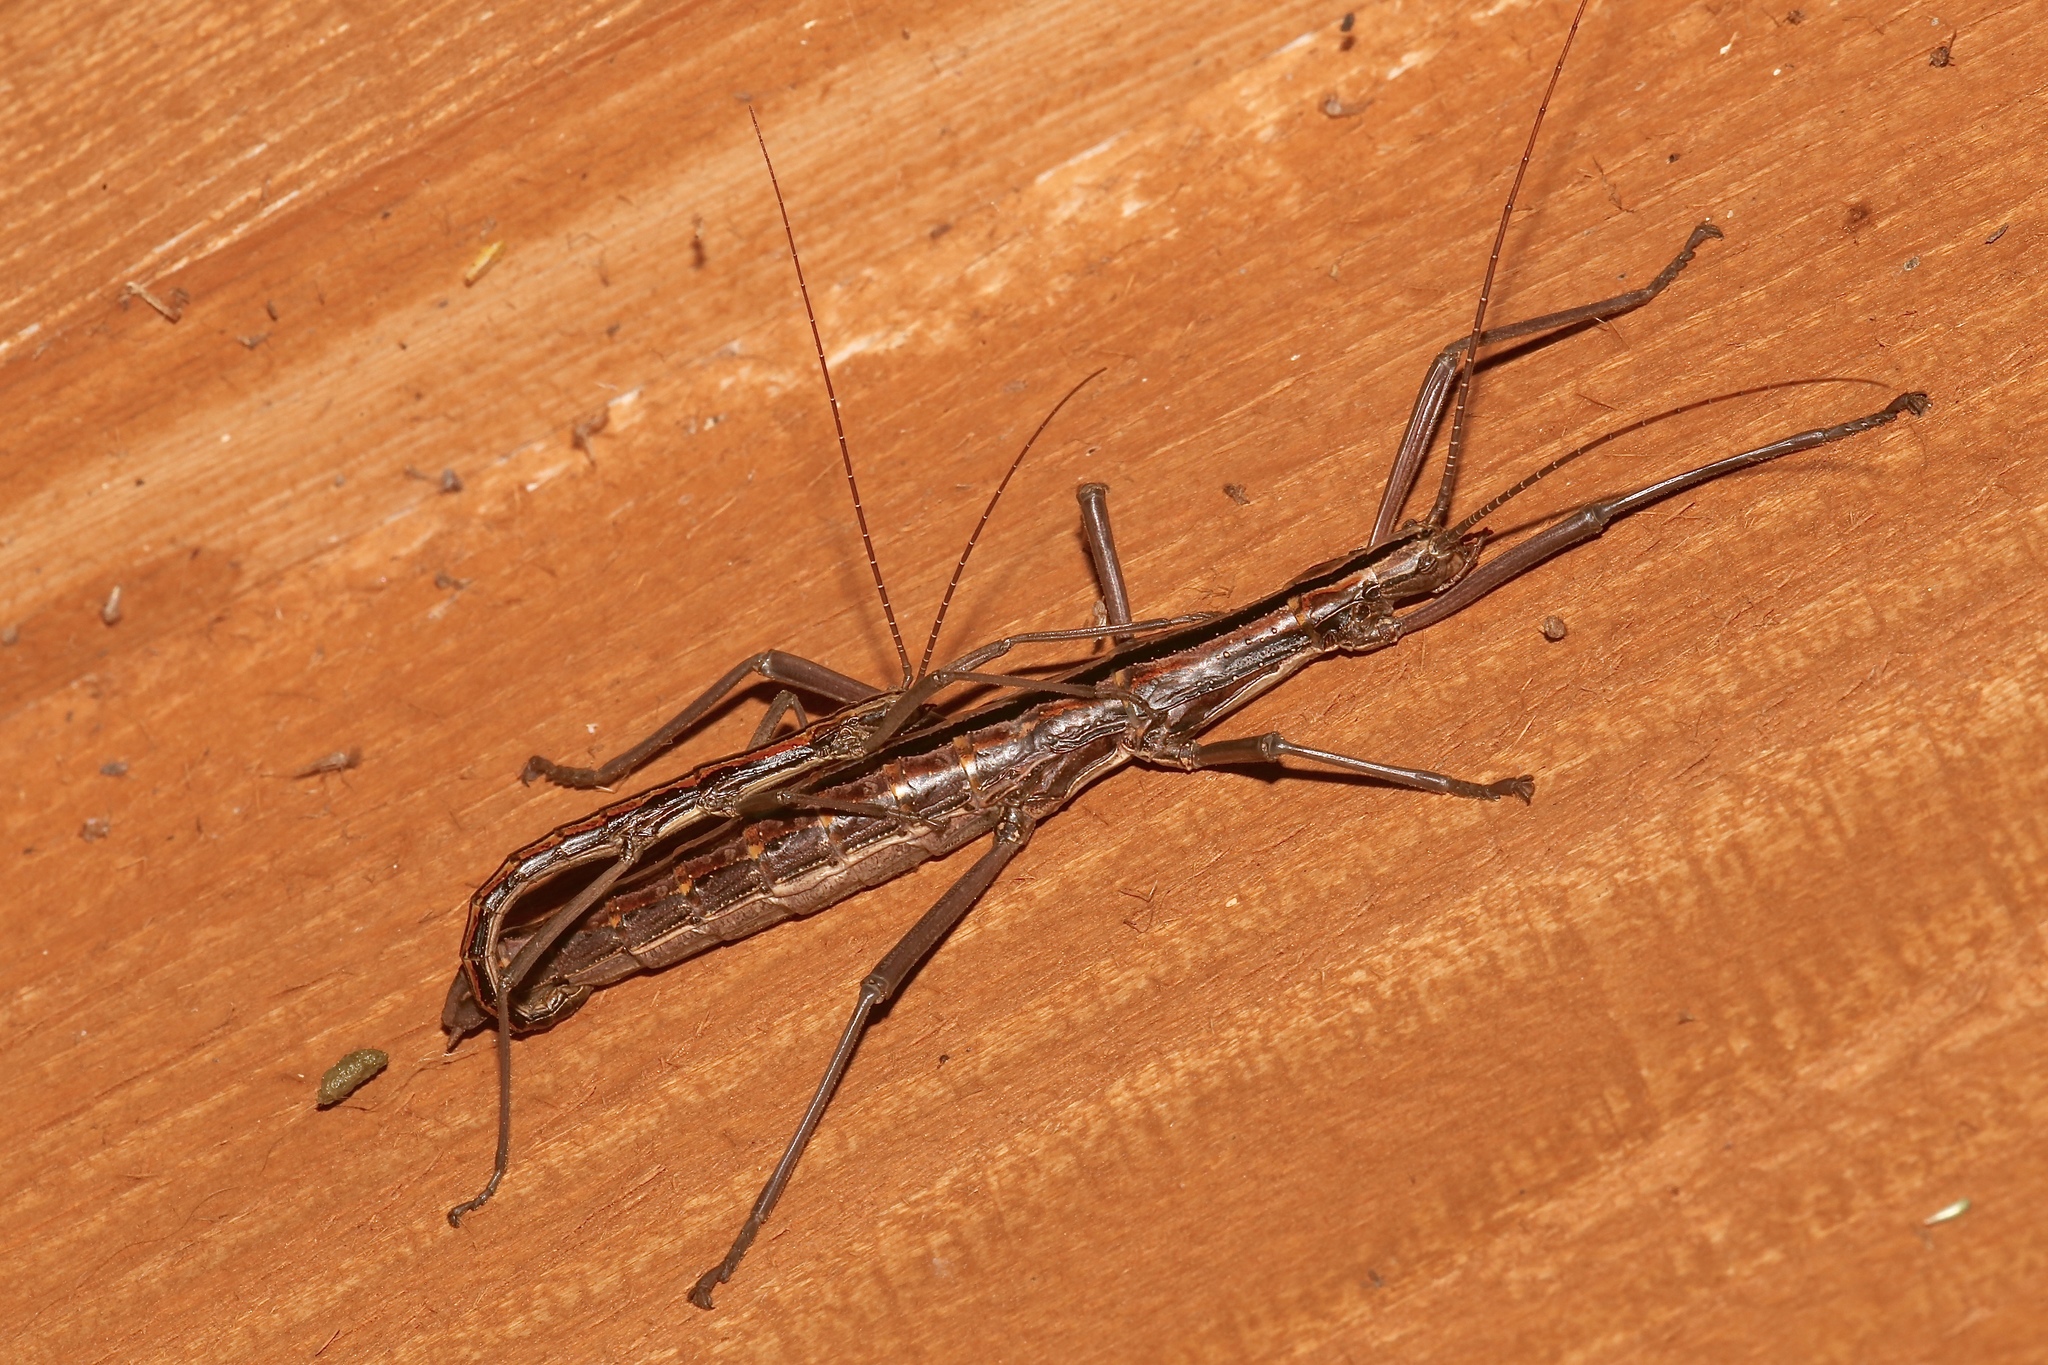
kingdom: Animalia
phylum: Arthropoda
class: Insecta
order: Phasmida
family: Pseudophasmatidae
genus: Anisomorpha
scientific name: Anisomorpha buprestoides
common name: Florida stick insect
